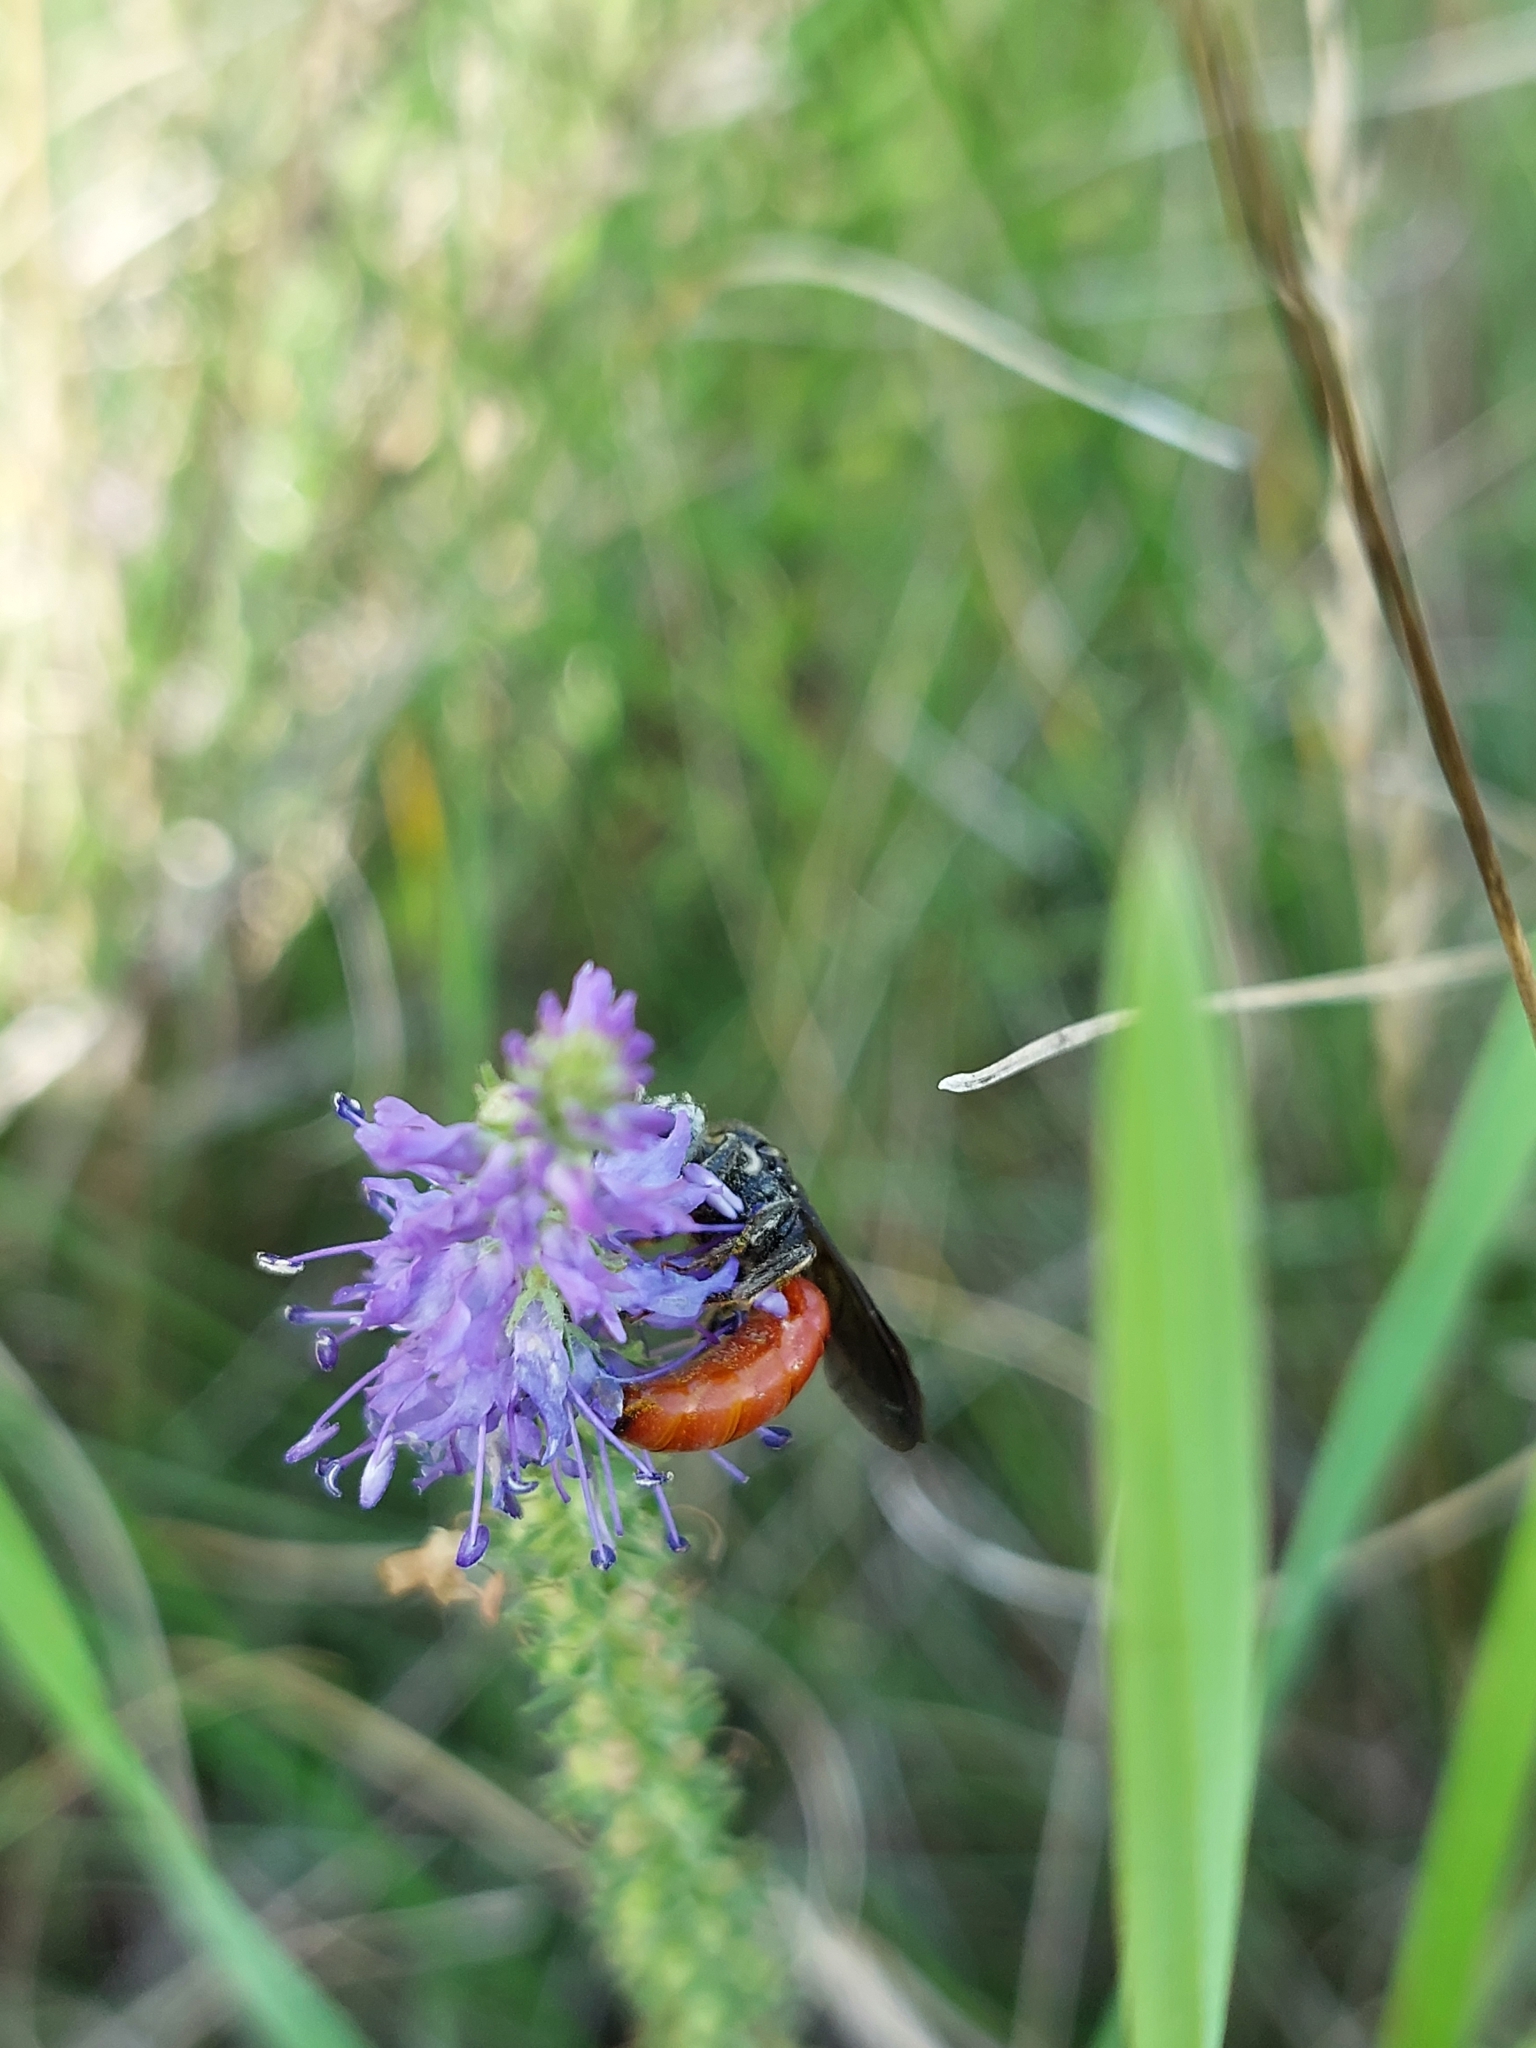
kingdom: Animalia
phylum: Arthropoda
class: Insecta
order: Hymenoptera
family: Halictidae
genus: Sphecodes
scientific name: Sphecodes albilabris
